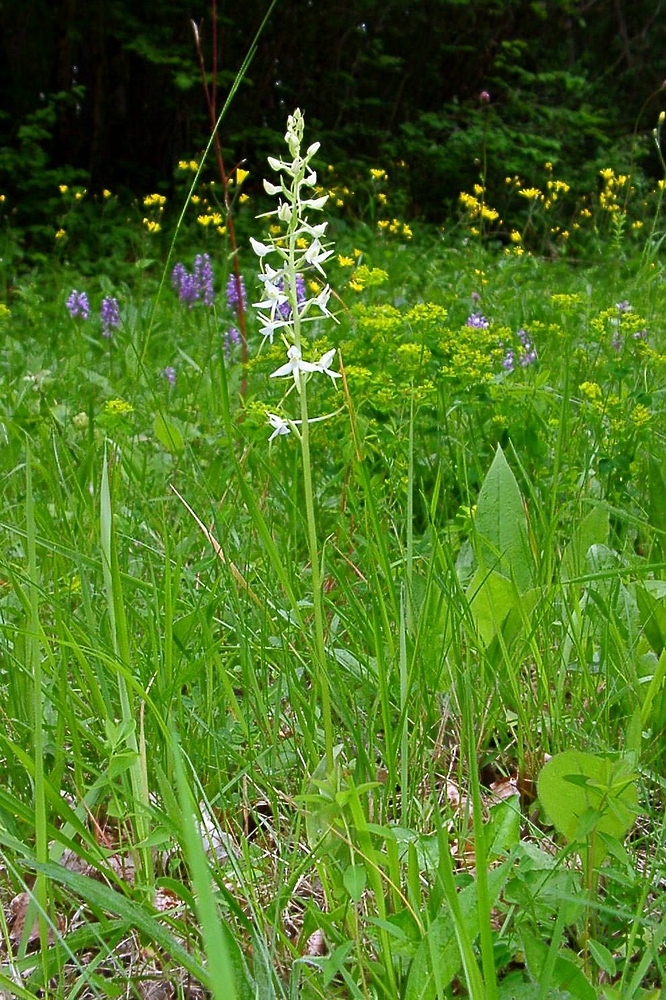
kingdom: Plantae
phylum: Tracheophyta
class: Liliopsida
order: Asparagales
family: Orchidaceae
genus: Platanthera
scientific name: Platanthera bifolia
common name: Lesser butterfly-orchid
